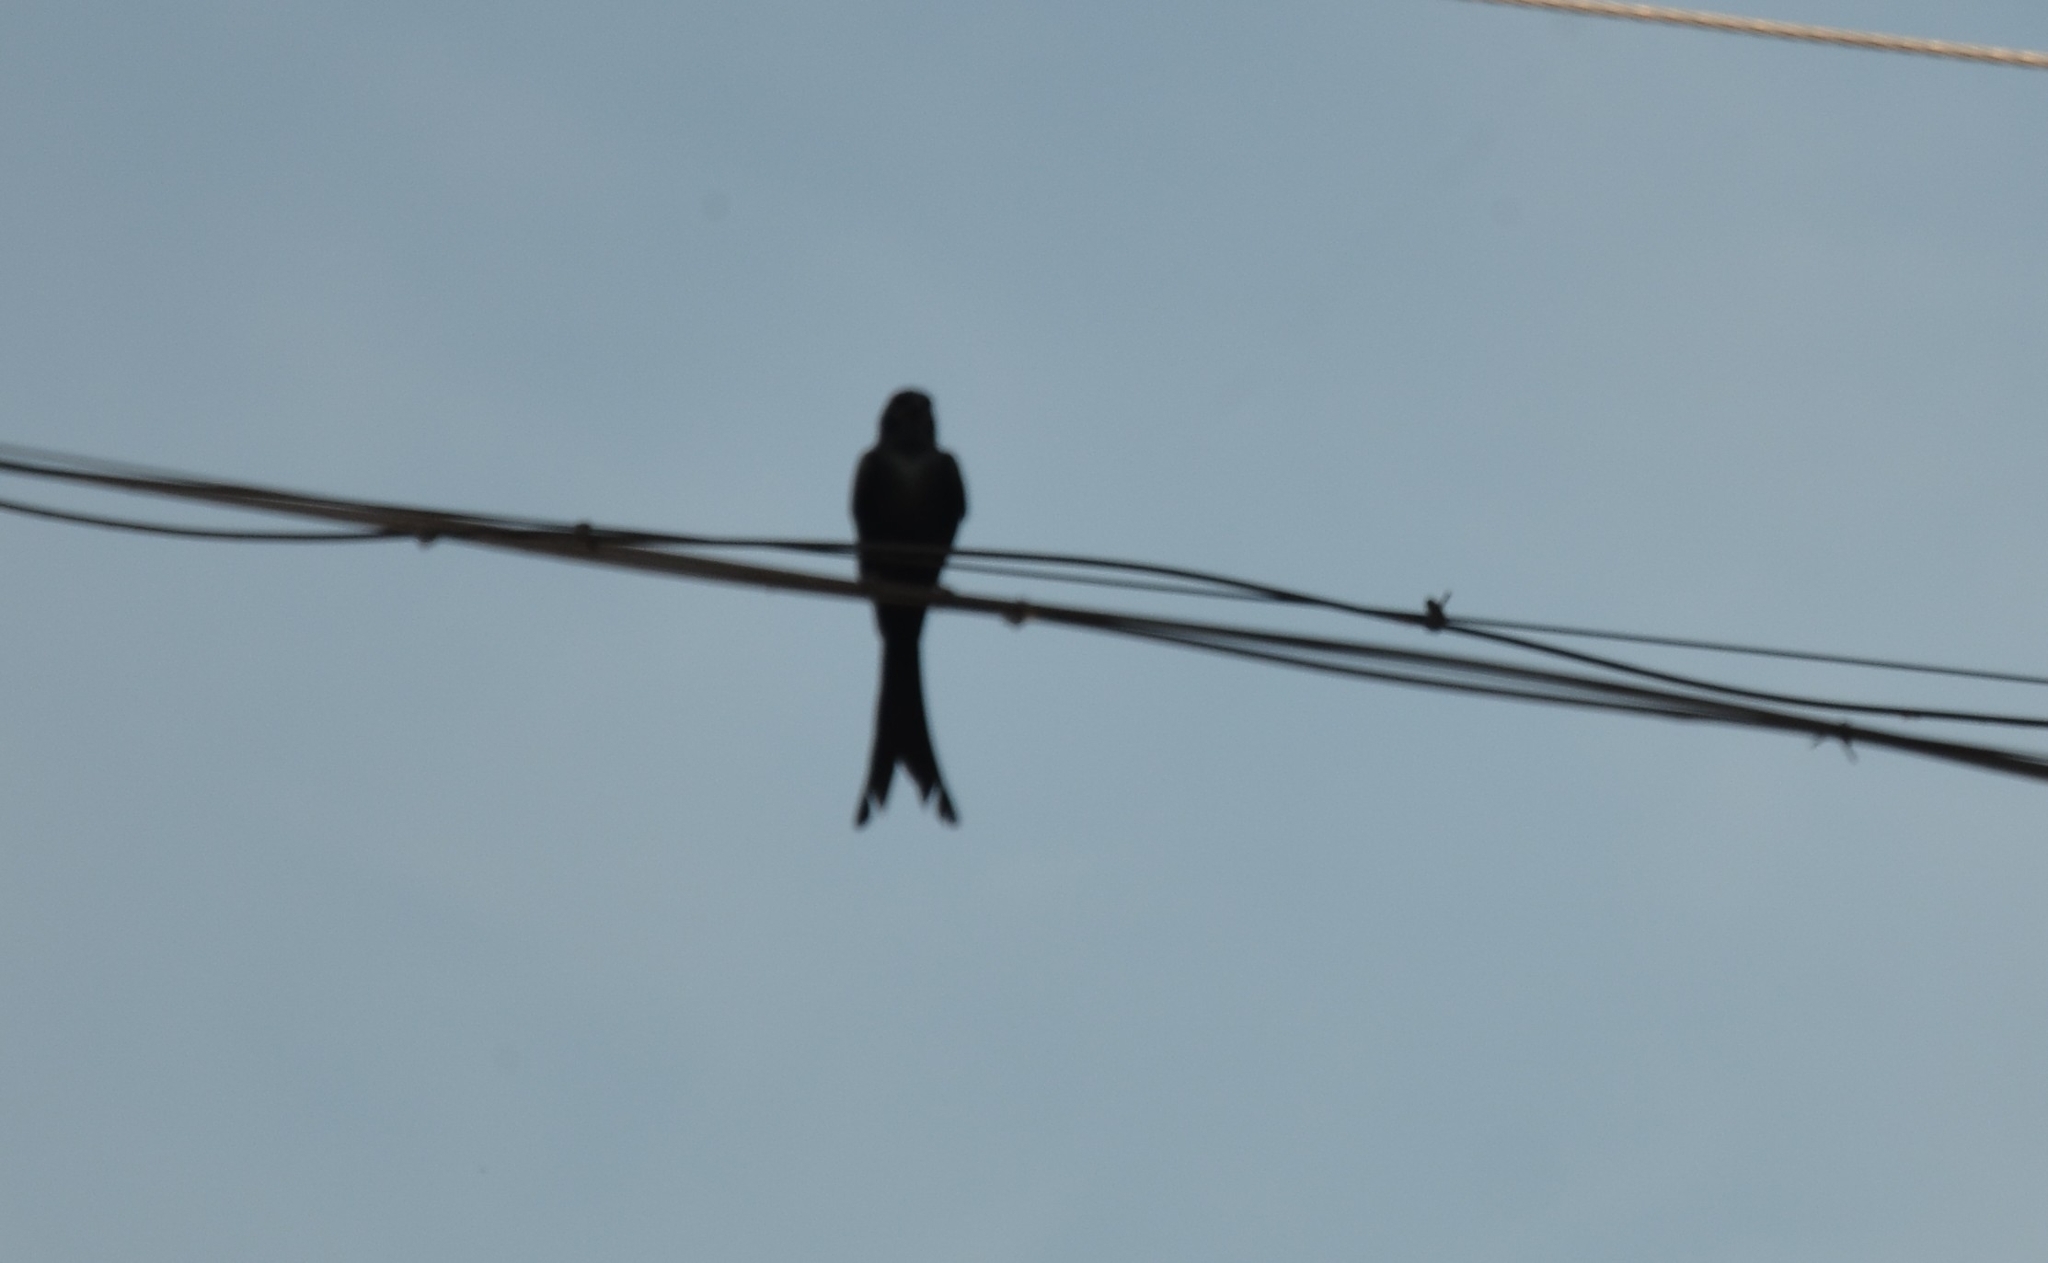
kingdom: Animalia
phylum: Chordata
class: Aves
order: Passeriformes
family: Dicruridae
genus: Dicrurus
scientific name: Dicrurus macrocercus
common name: Black drongo
